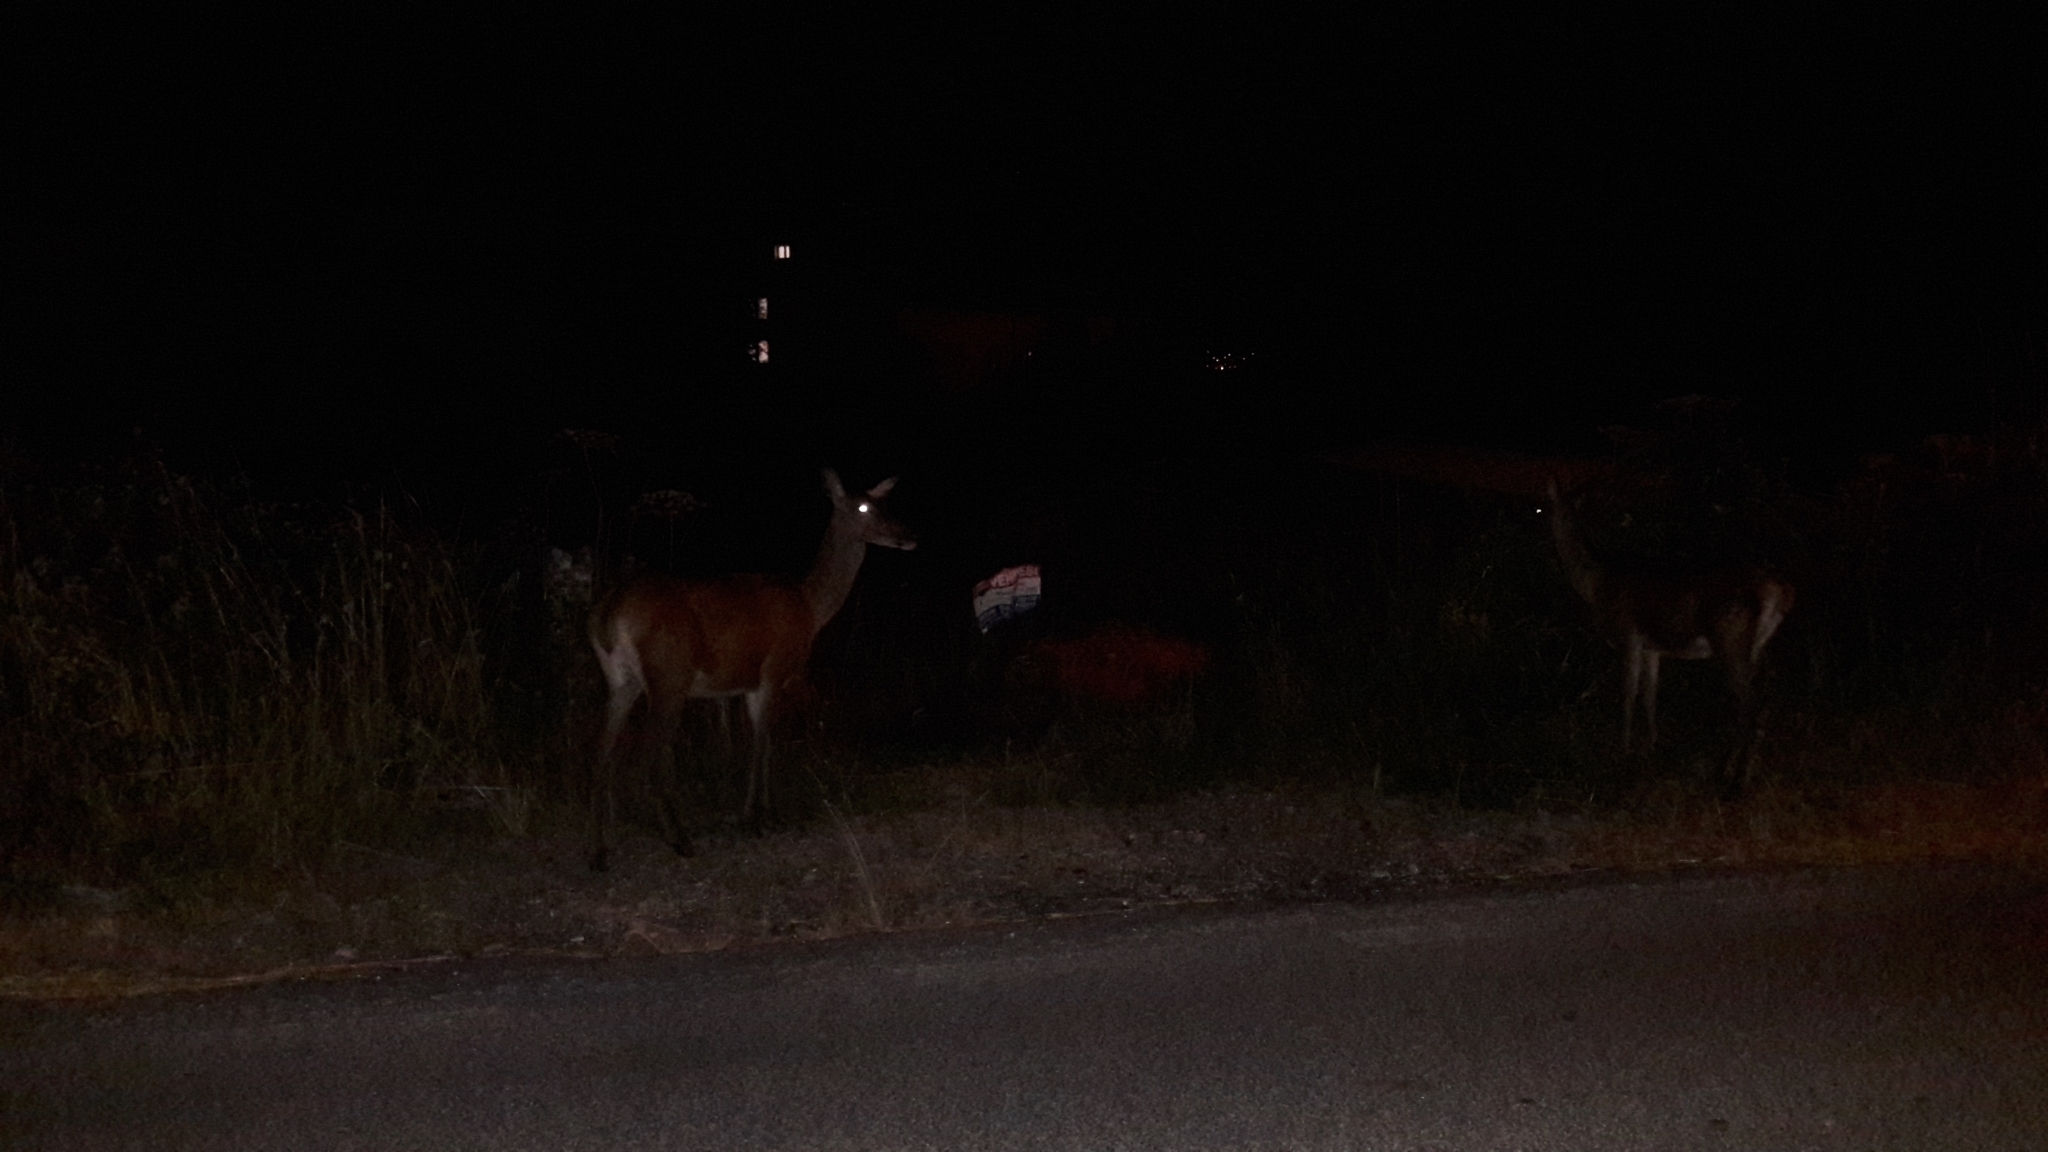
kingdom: Animalia
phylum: Chordata
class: Mammalia
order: Artiodactyla
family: Cervidae
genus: Cervus
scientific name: Cervus elaphus
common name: Red deer
